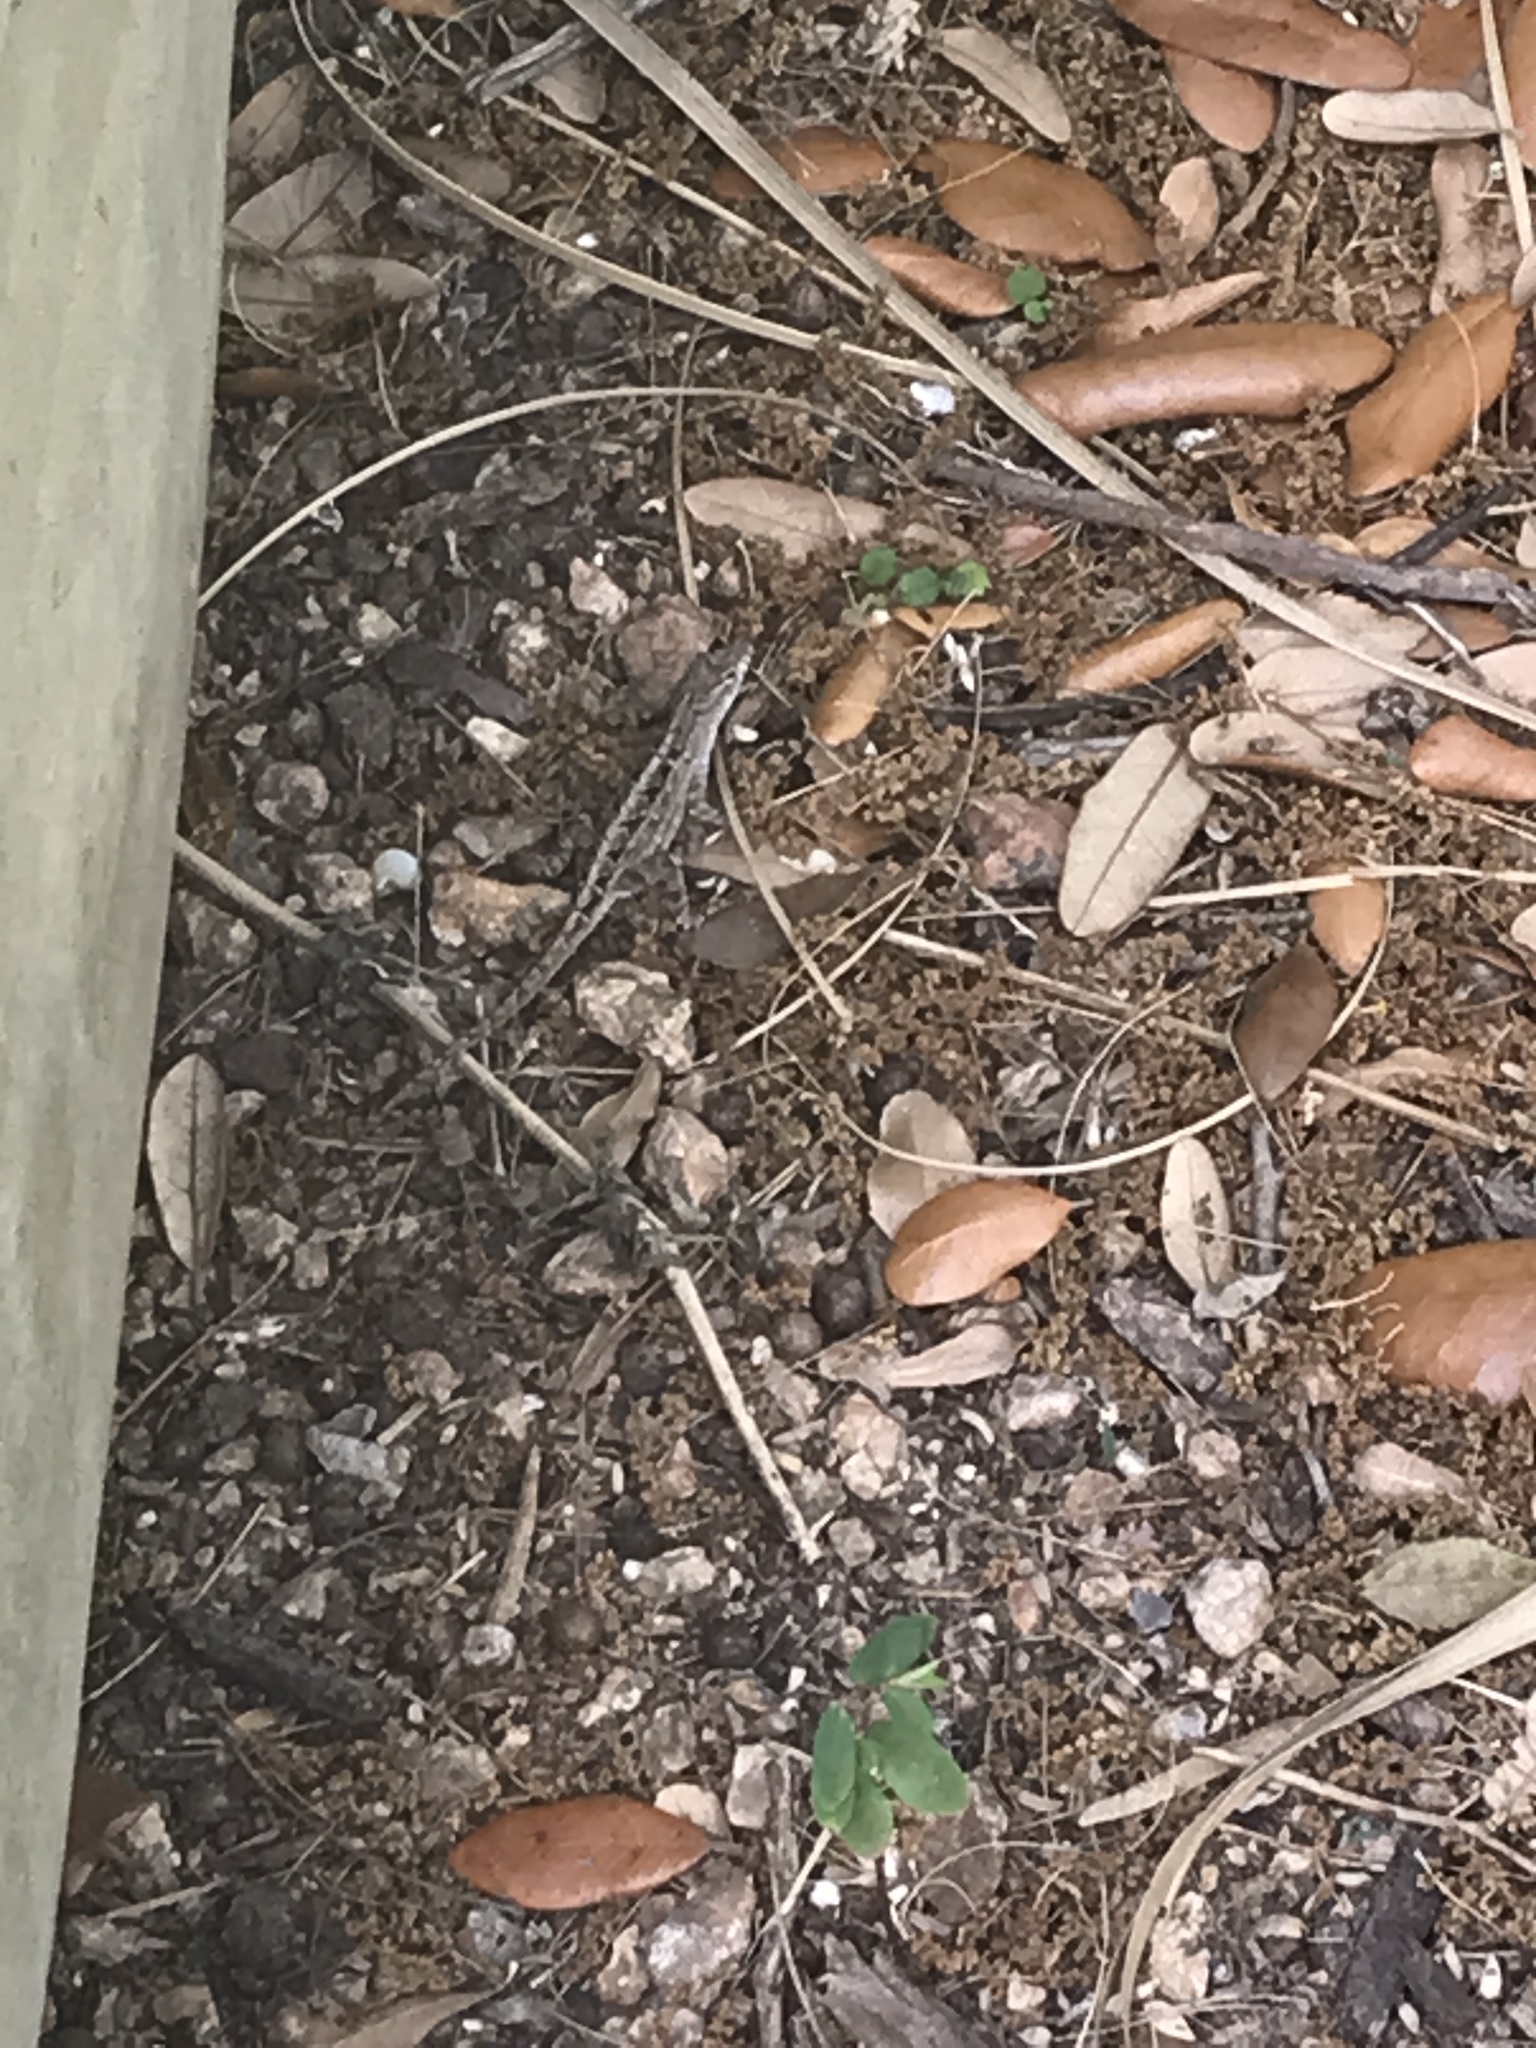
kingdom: Animalia
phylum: Chordata
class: Squamata
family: Dactyloidae
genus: Anolis
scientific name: Anolis sagrei
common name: Brown anole
